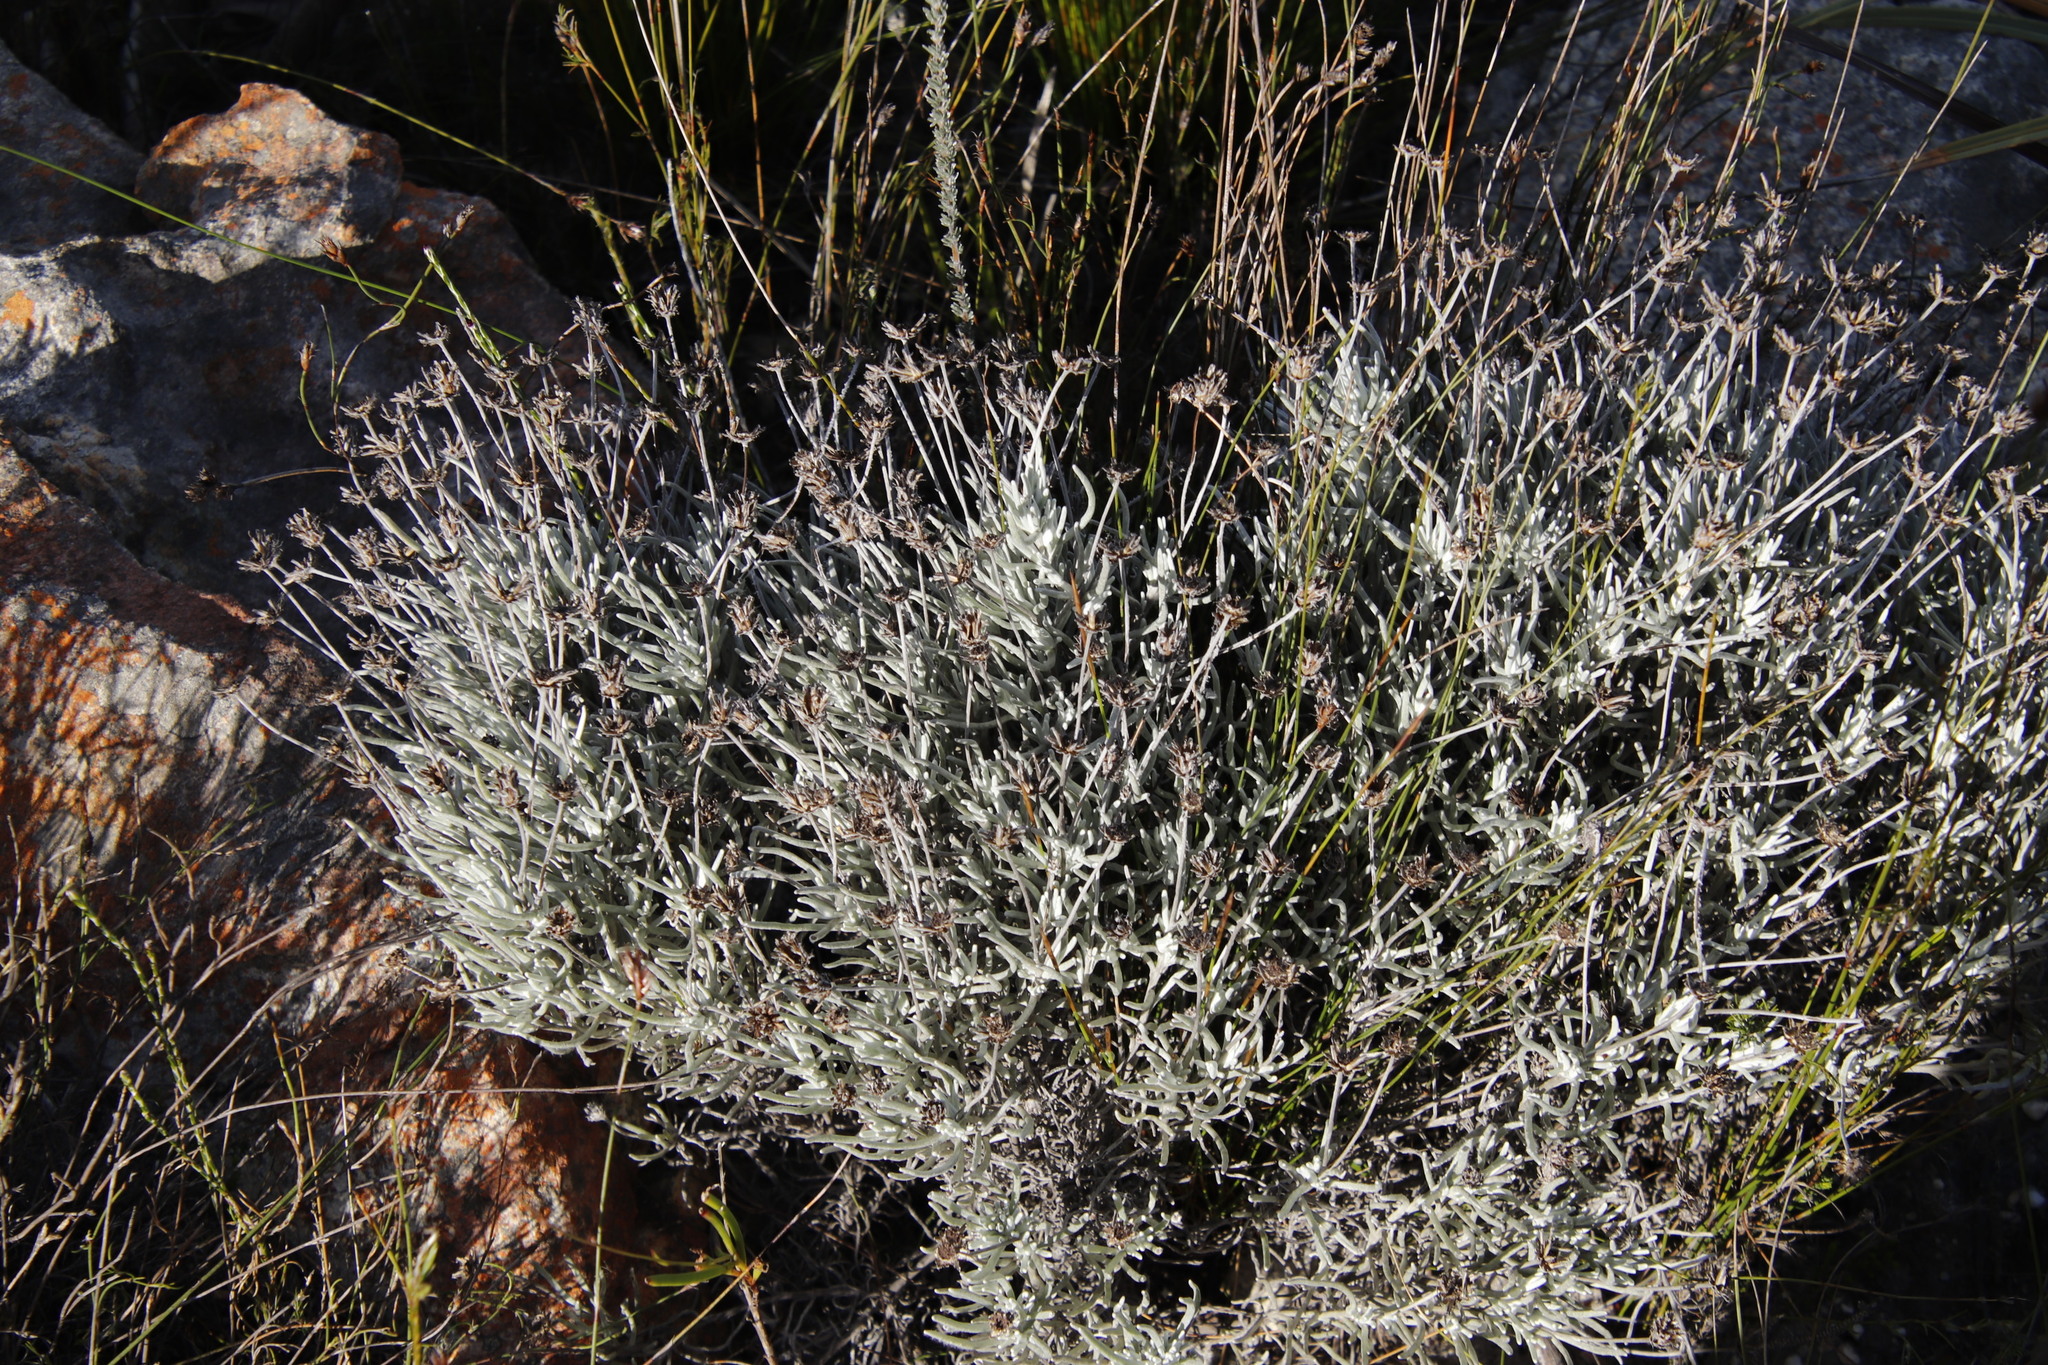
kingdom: Plantae
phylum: Tracheophyta
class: Magnoliopsida
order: Asterales
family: Asteraceae
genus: Syncarpha
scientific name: Syncarpha gnaphaloides
